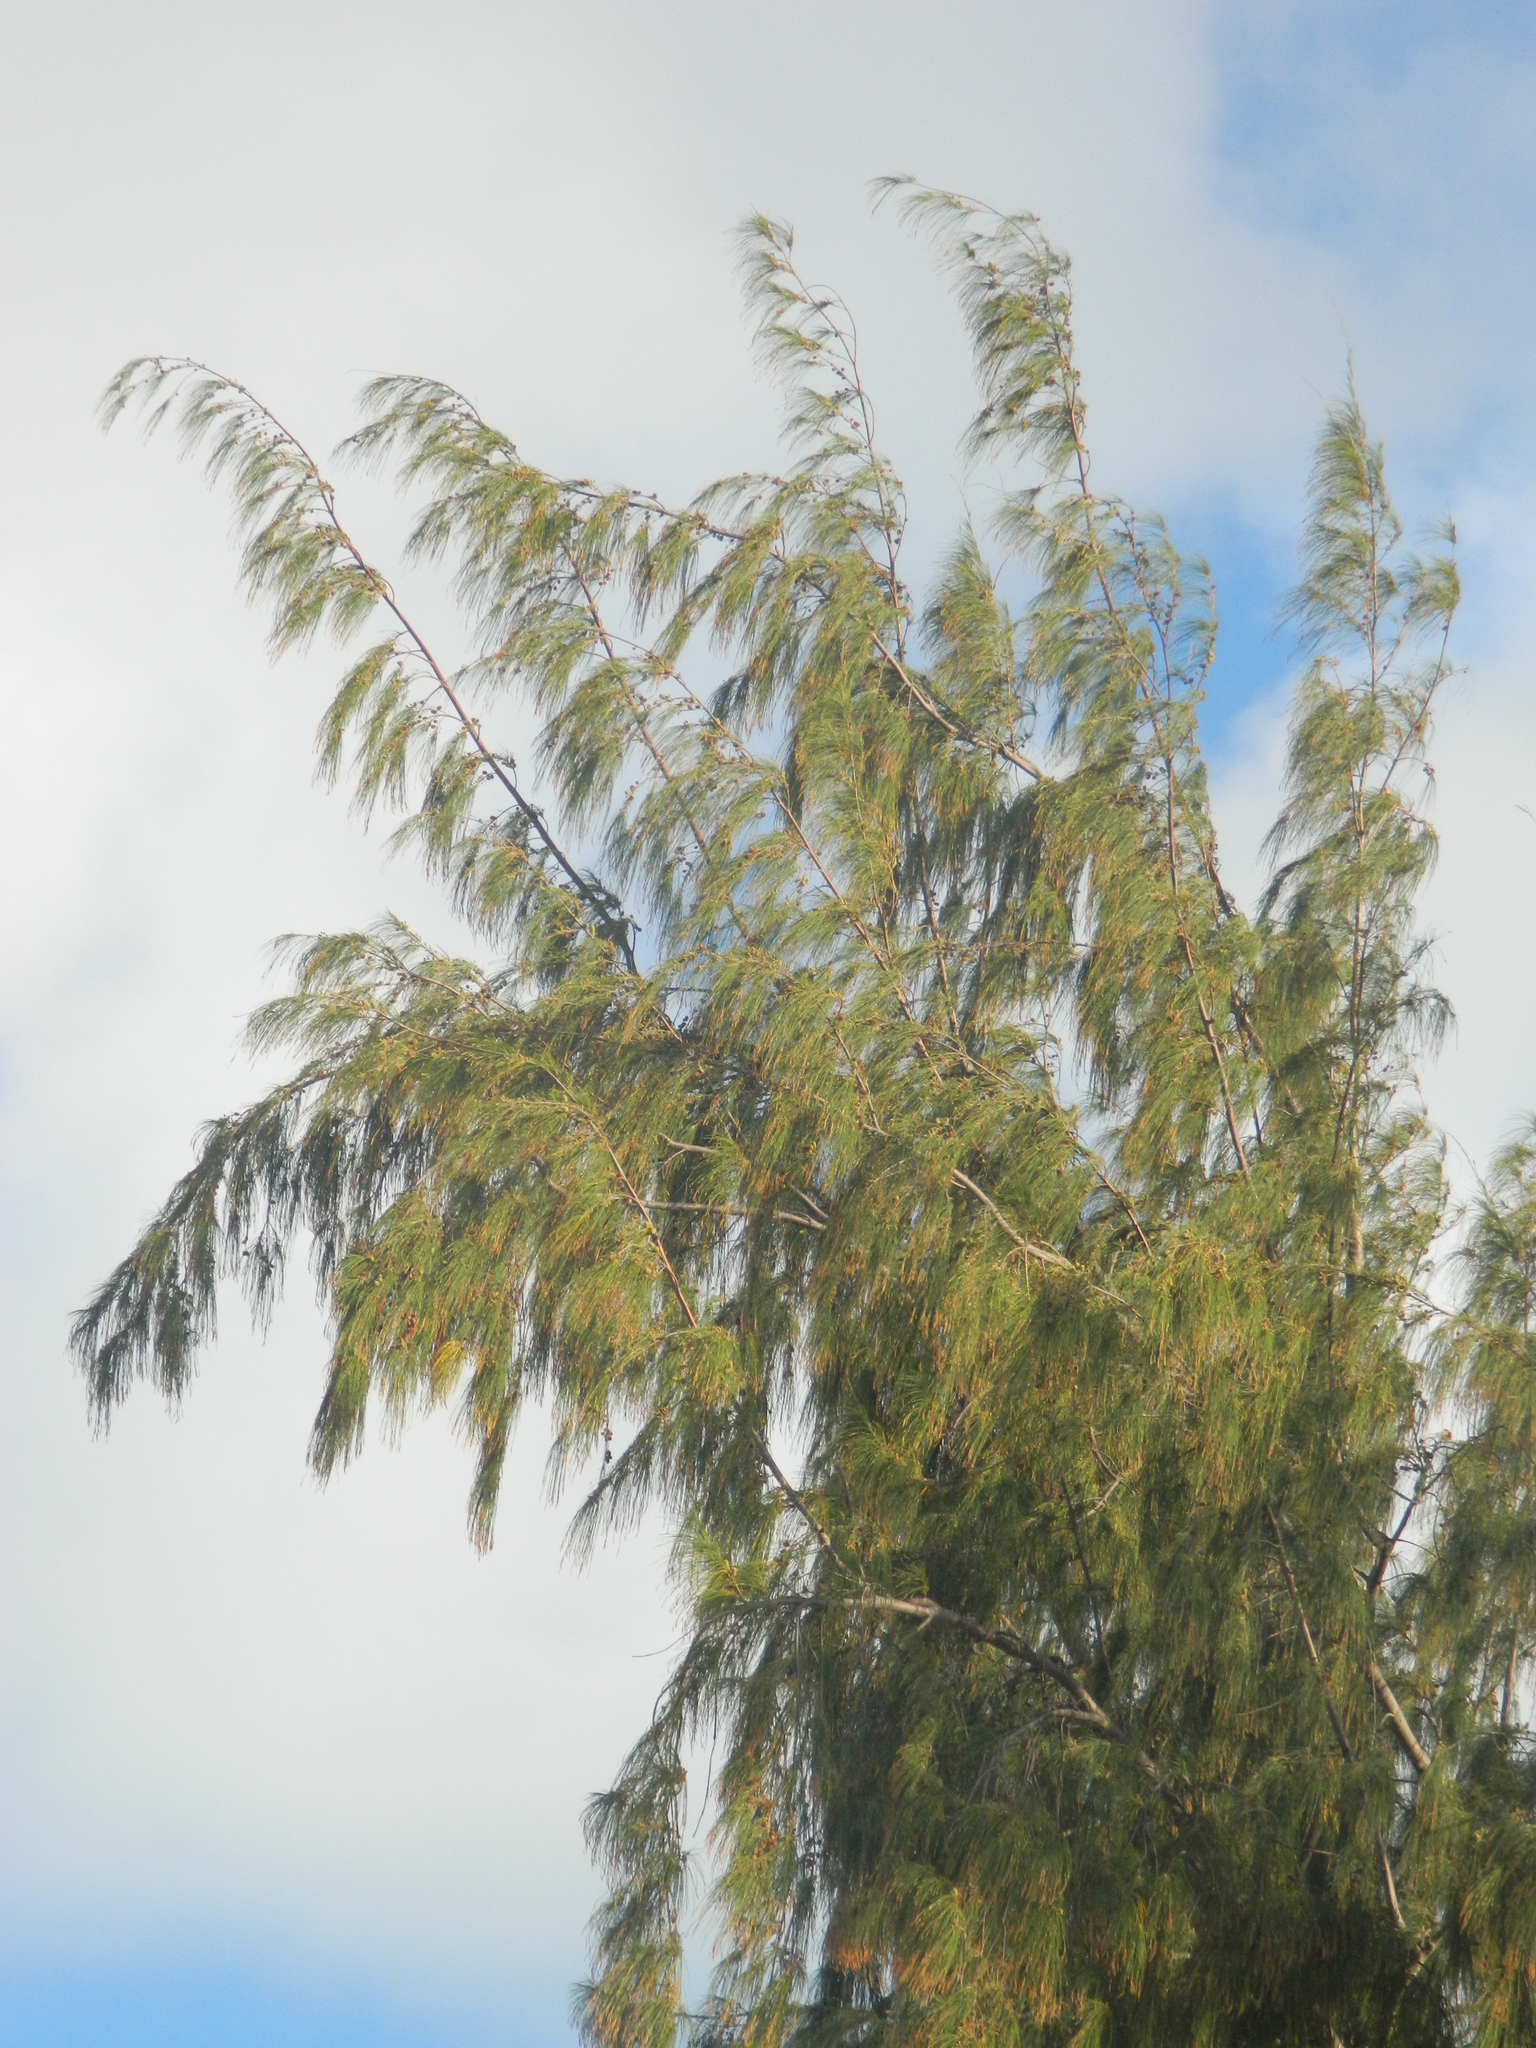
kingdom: Plantae
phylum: Tracheophyta
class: Magnoliopsida
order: Fagales
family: Casuarinaceae
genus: Casuarina
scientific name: Casuarina equisetifolia
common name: Beach sheoak
